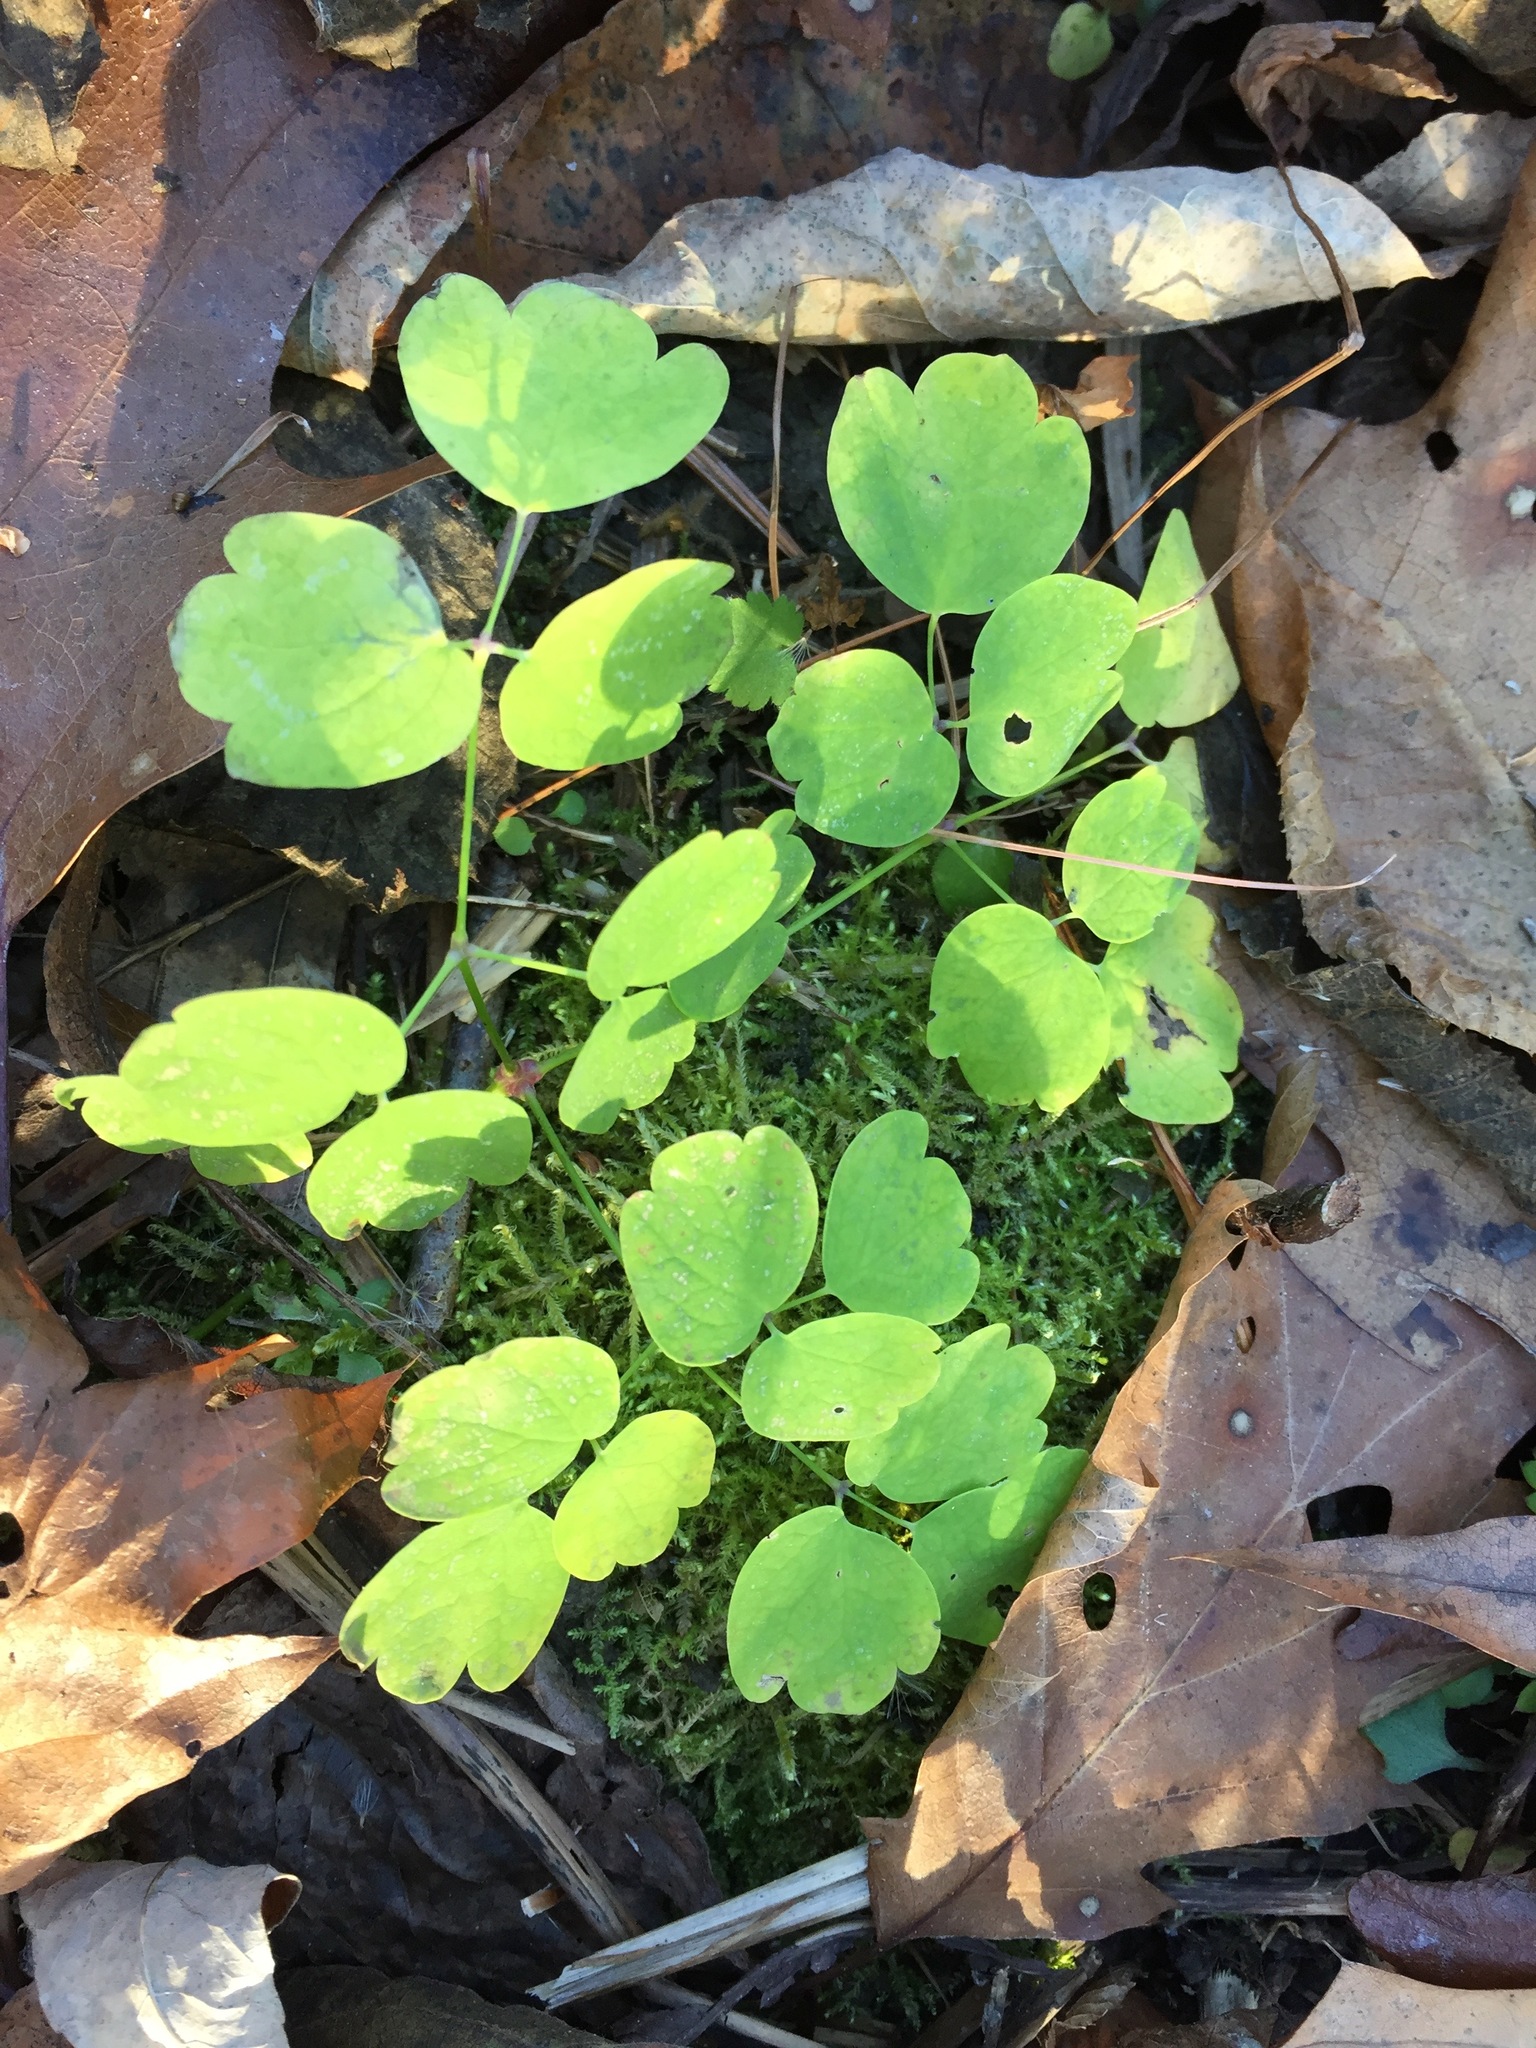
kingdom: Plantae
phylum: Tracheophyta
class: Magnoliopsida
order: Ranunculales
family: Ranunculaceae
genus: Thalictrum
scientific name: Thalictrum pubescens
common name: King-of-the-meadow
